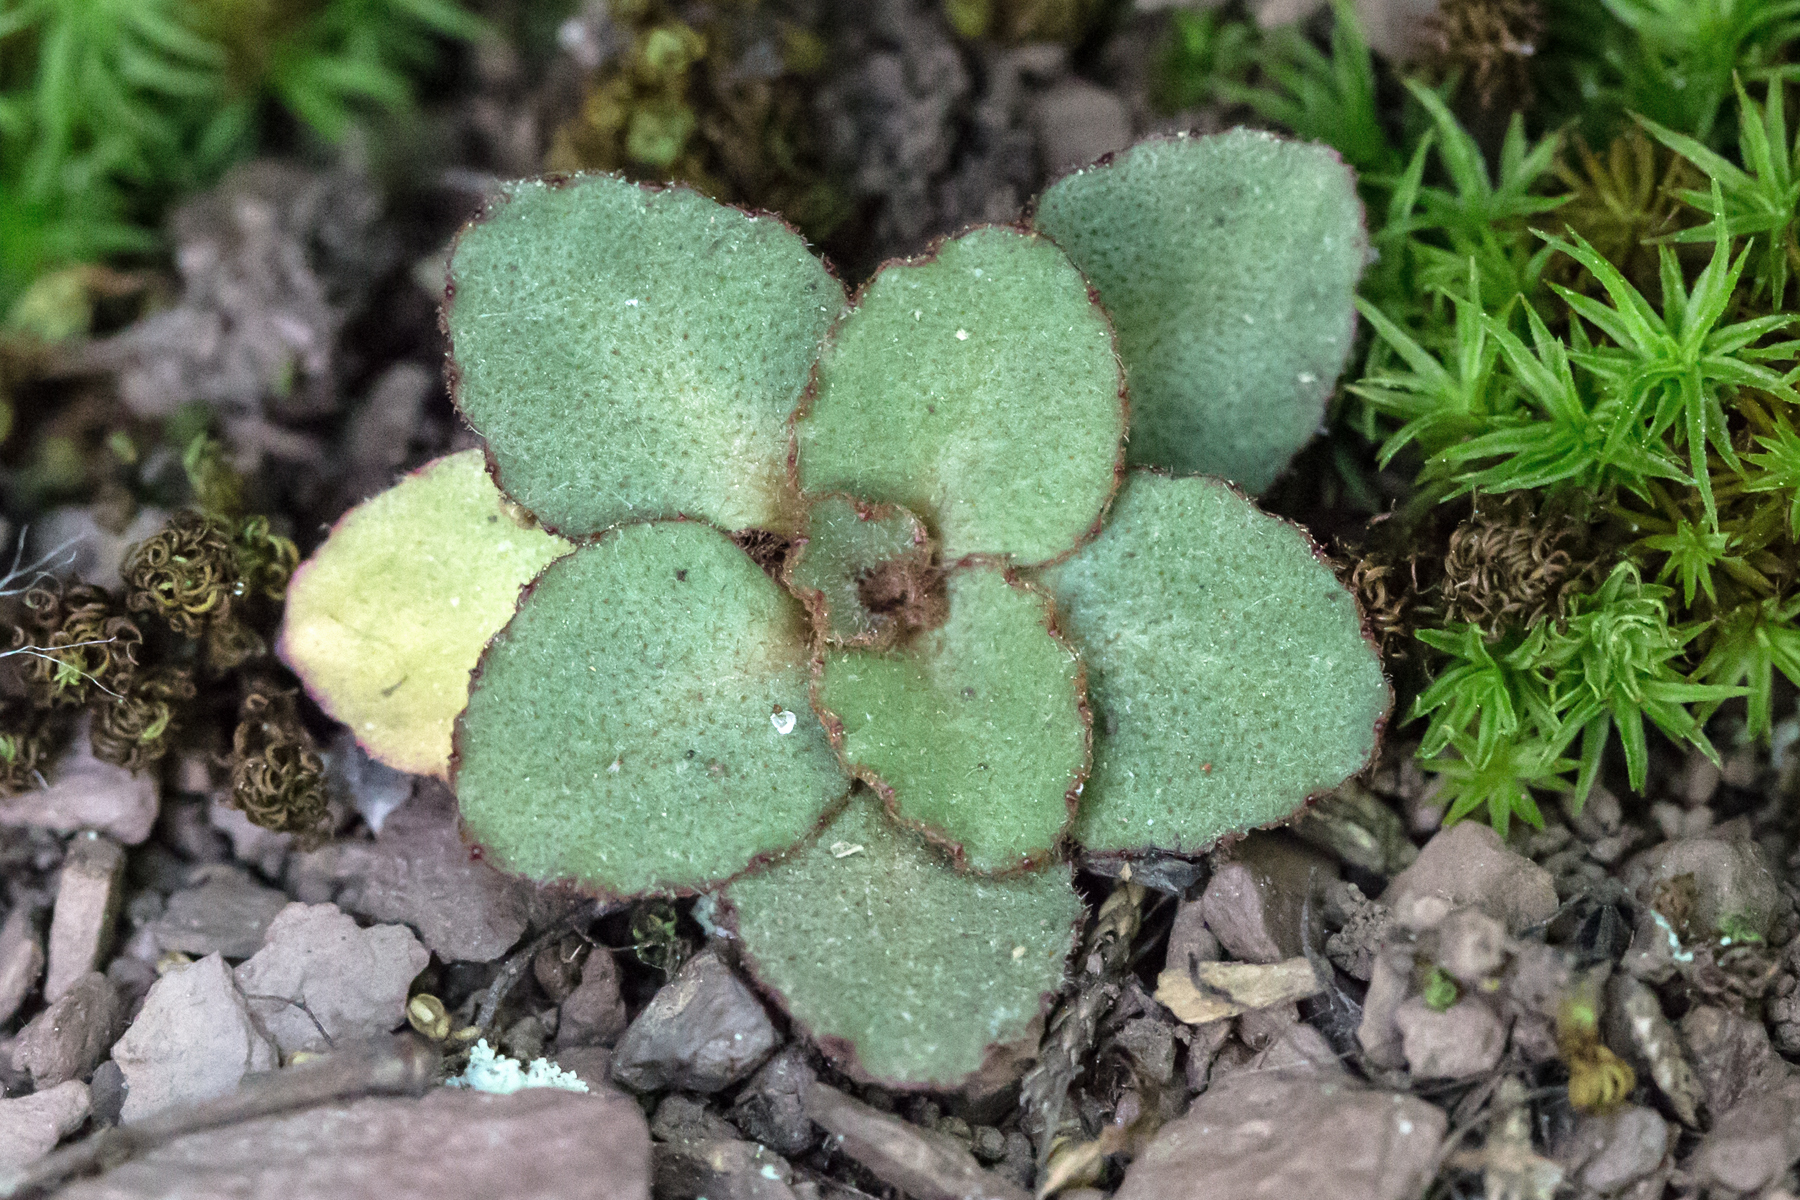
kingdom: Plantae
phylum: Tracheophyta
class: Magnoliopsida
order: Saxifragales
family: Saxifragaceae
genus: Micranthes
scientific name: Micranthes virginiensis
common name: Early saxifrage
